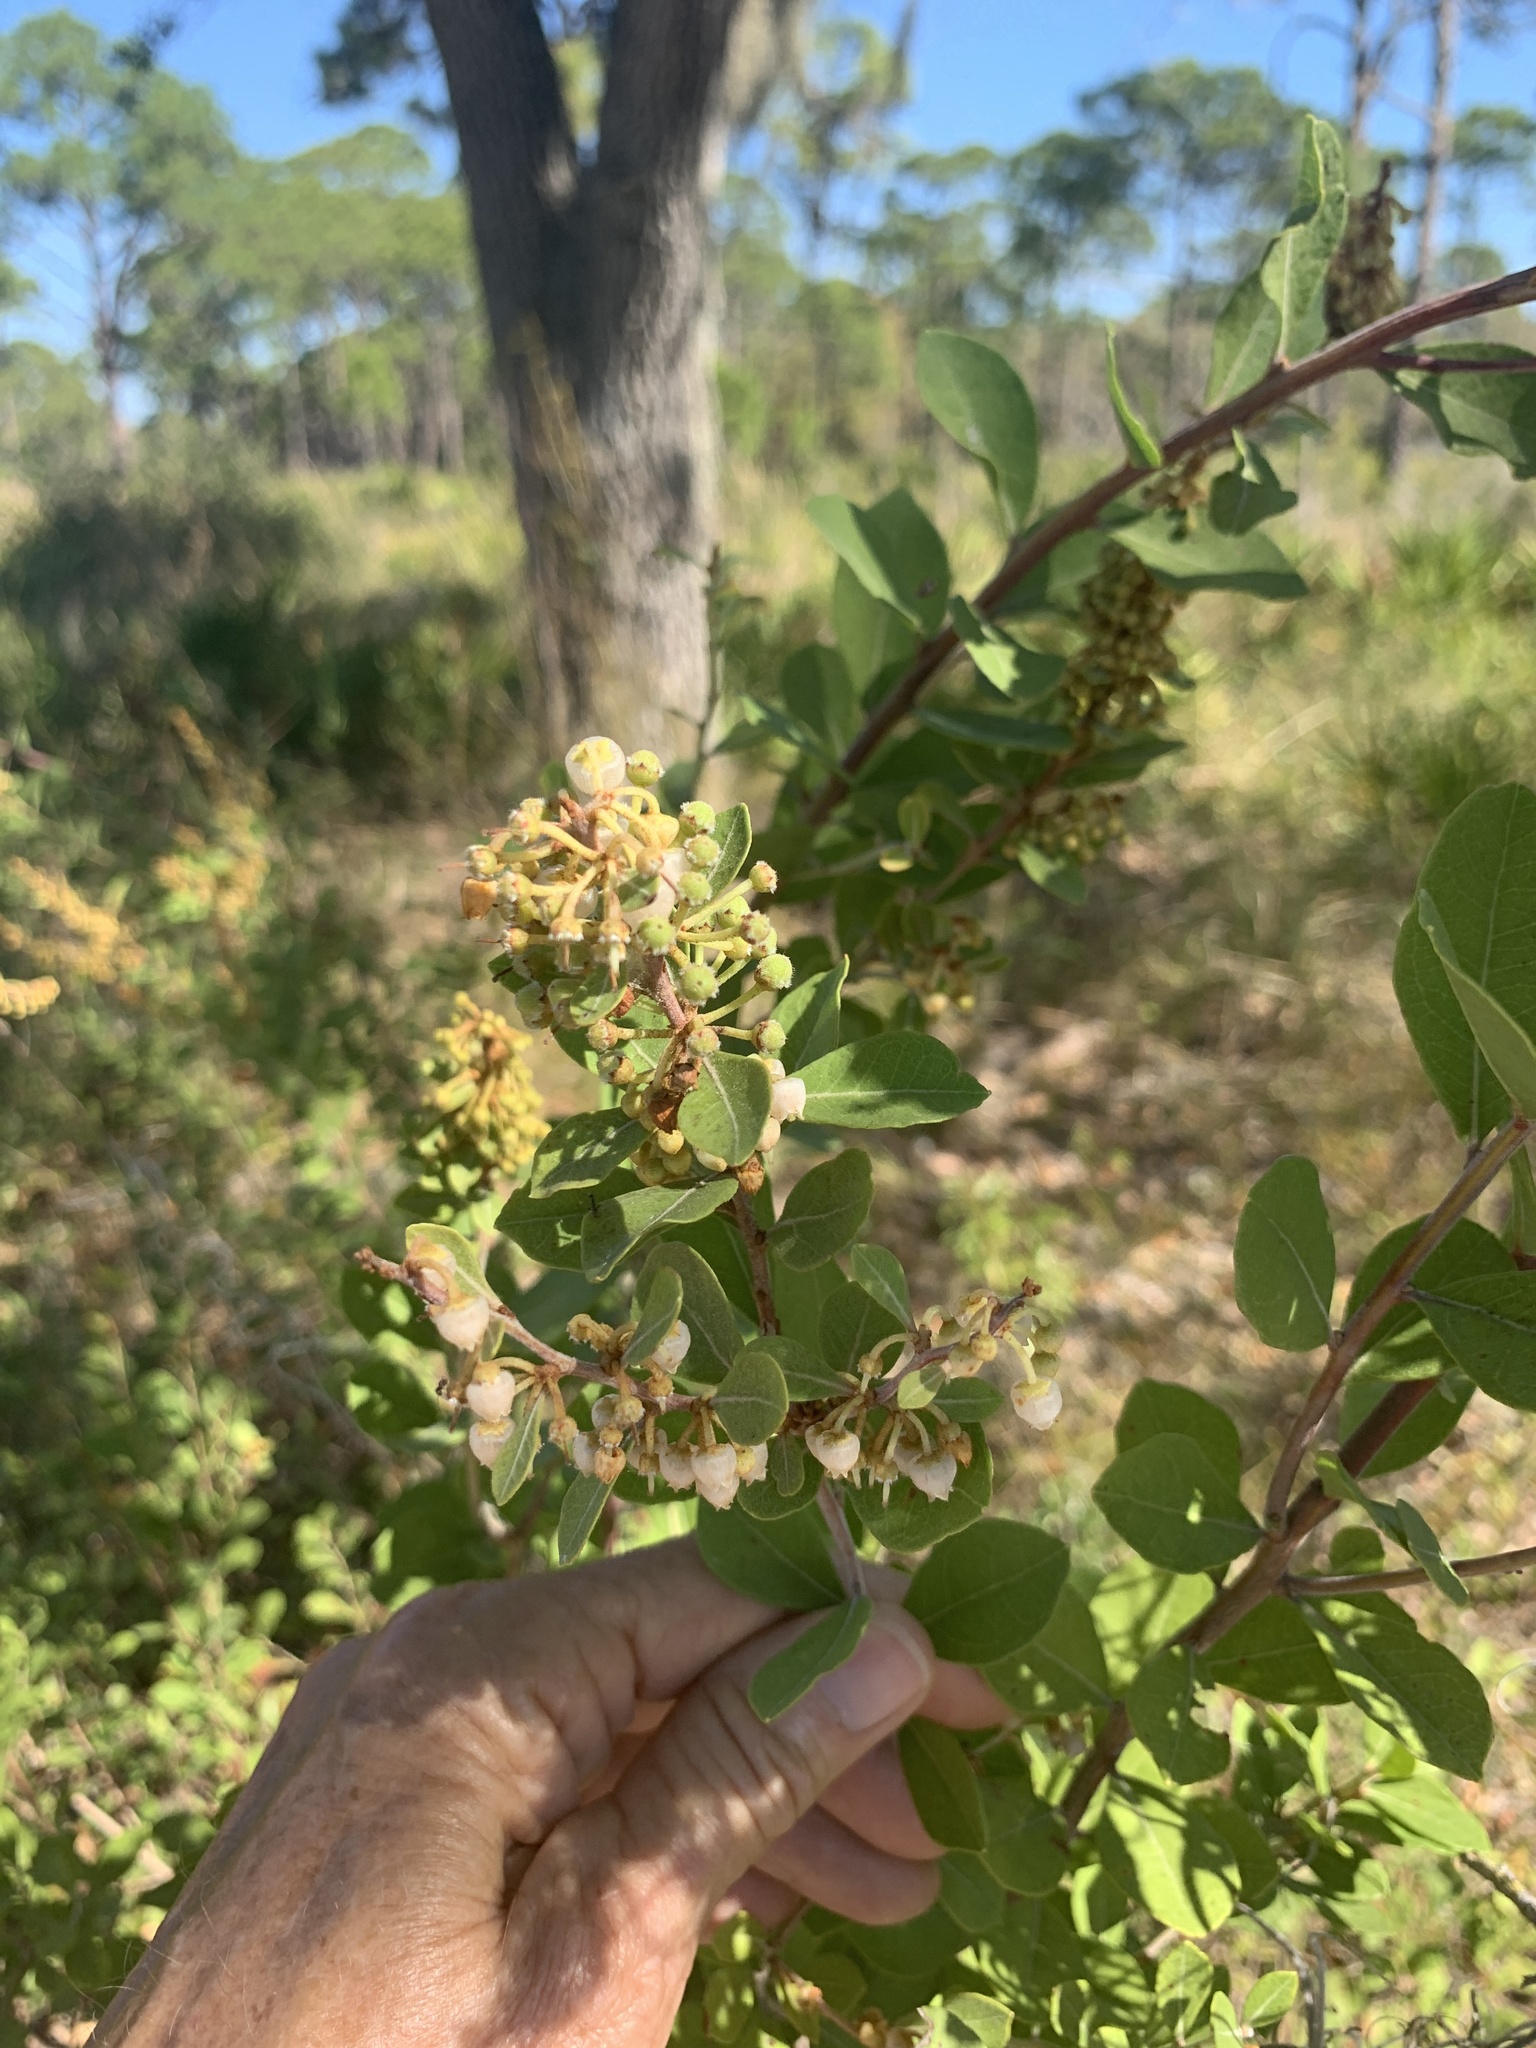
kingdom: Plantae
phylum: Tracheophyta
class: Magnoliopsida
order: Ericales
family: Ericaceae
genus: Lyonia
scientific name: Lyonia fruticosa
